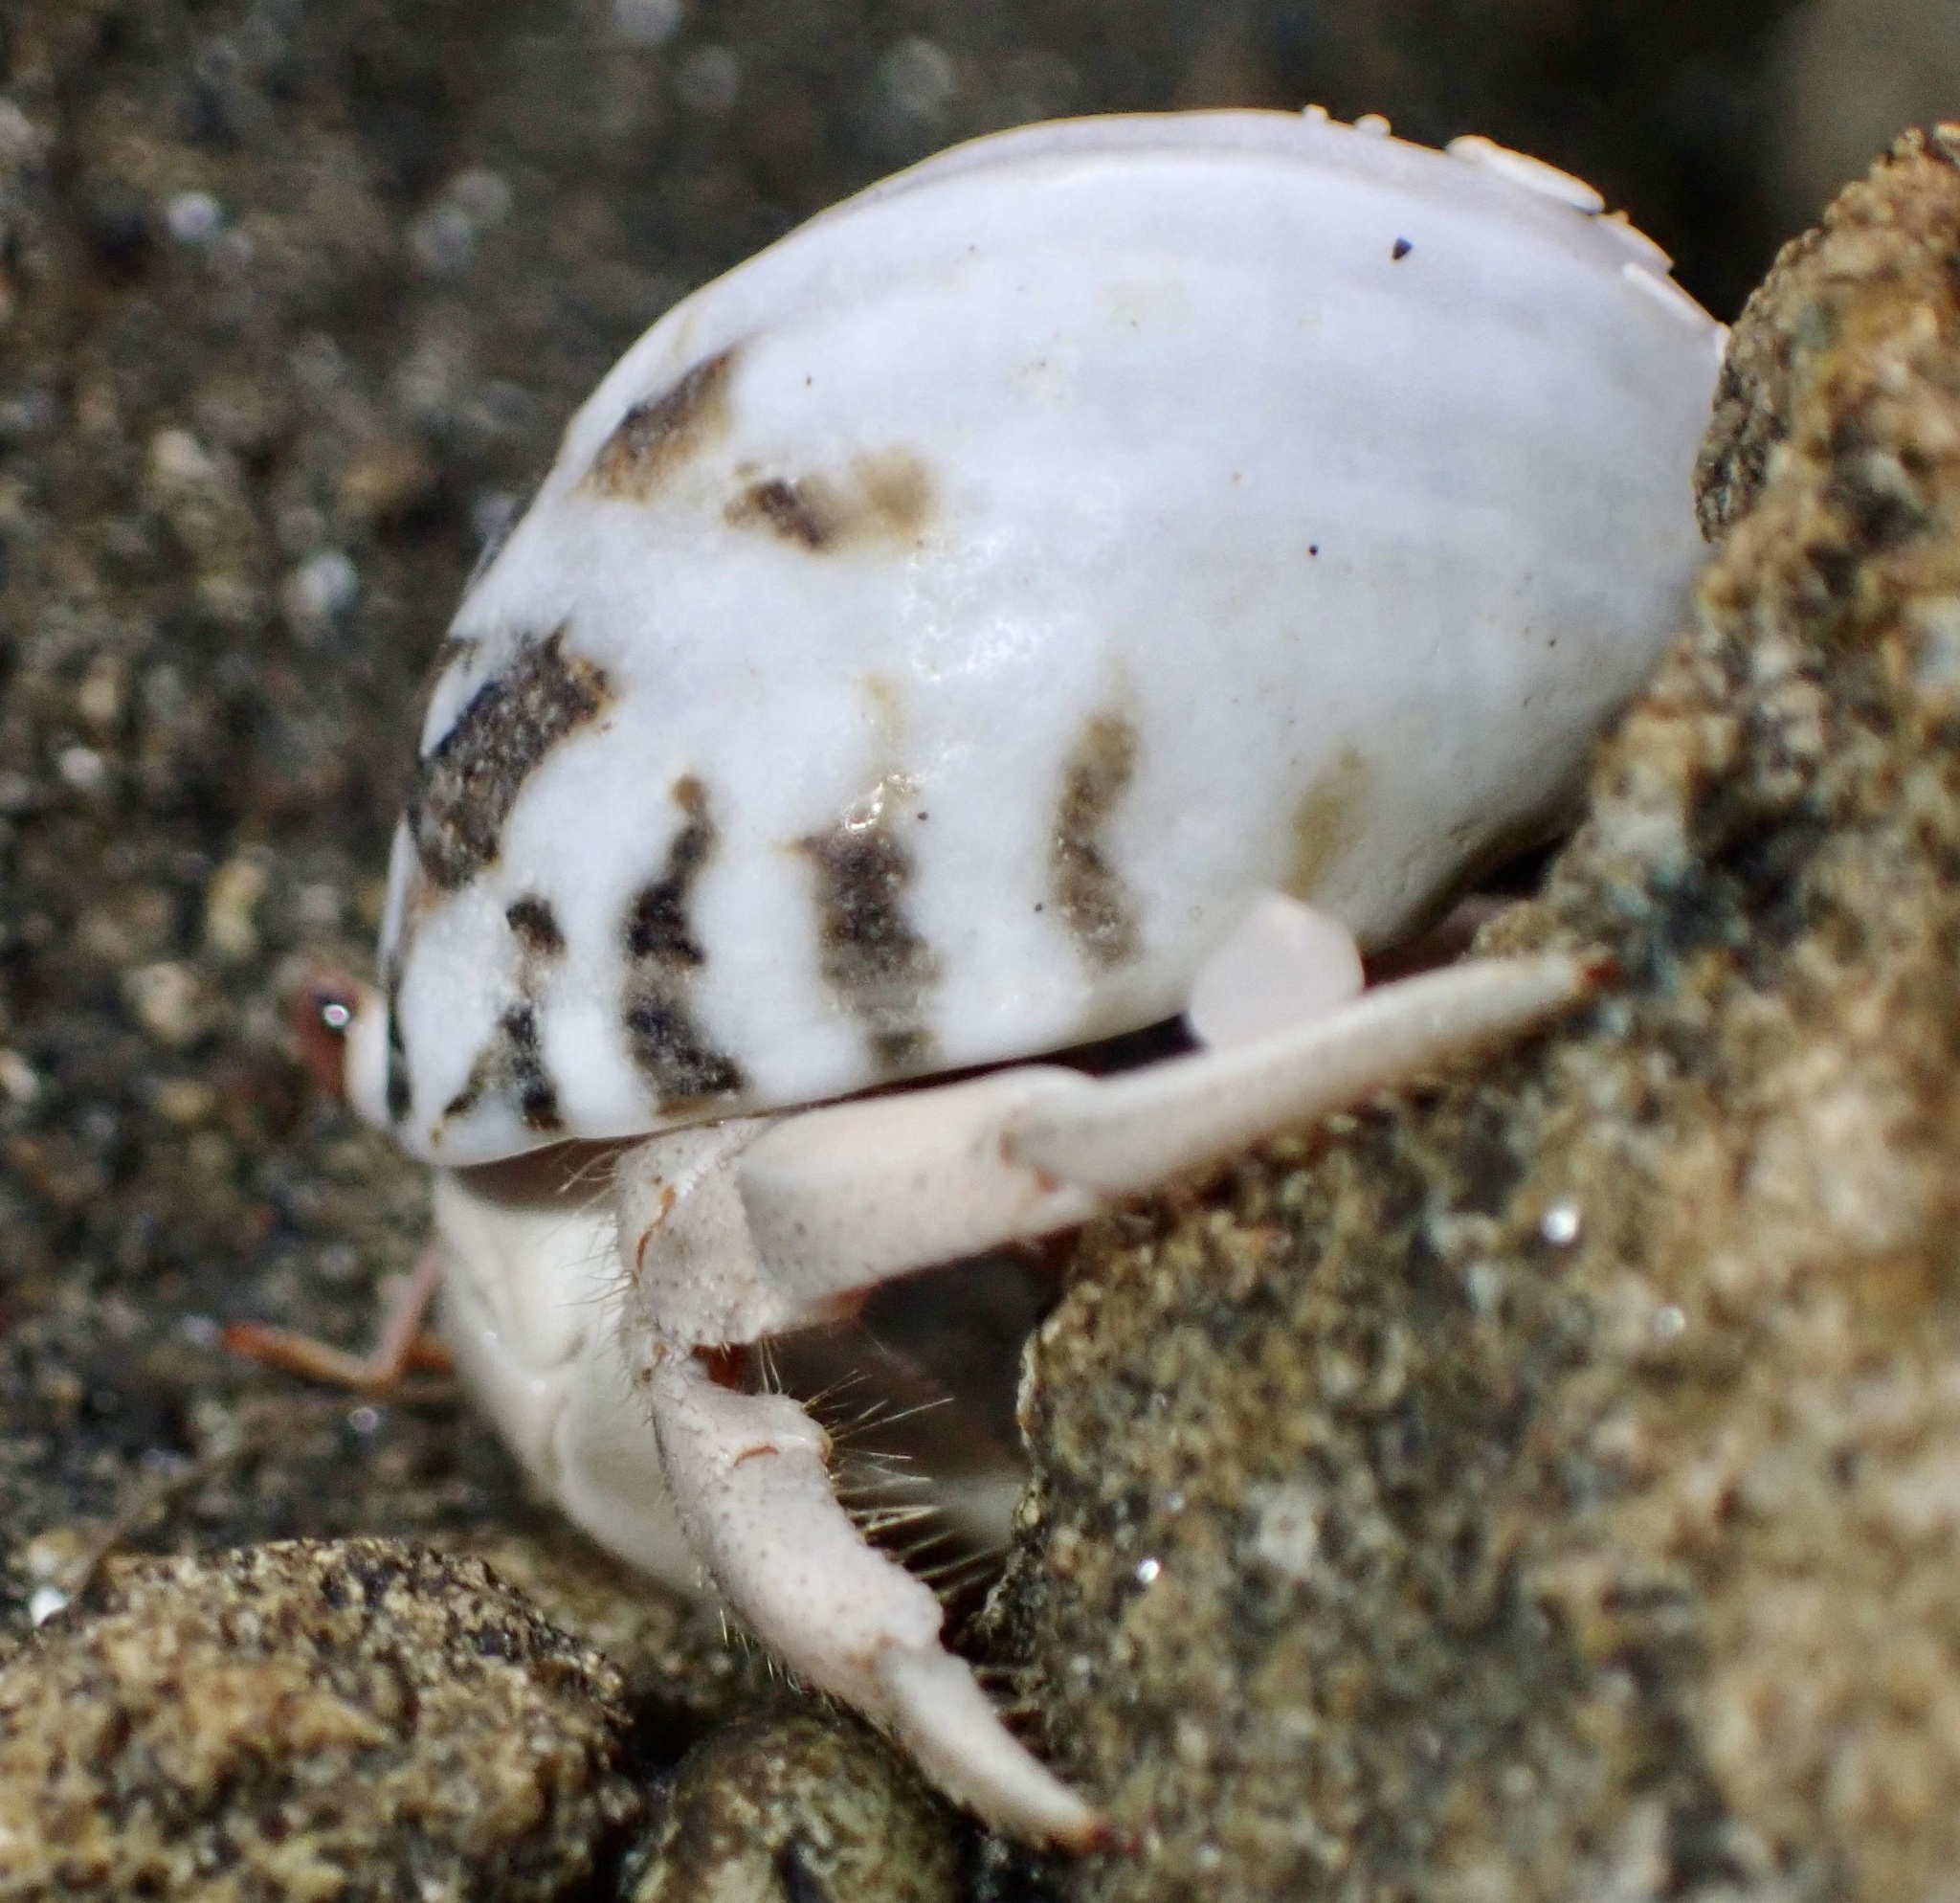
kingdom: Animalia
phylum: Arthropoda
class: Malacostraca
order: Decapoda
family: Coenobitidae
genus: Coenobita
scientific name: Coenobita scaevola
